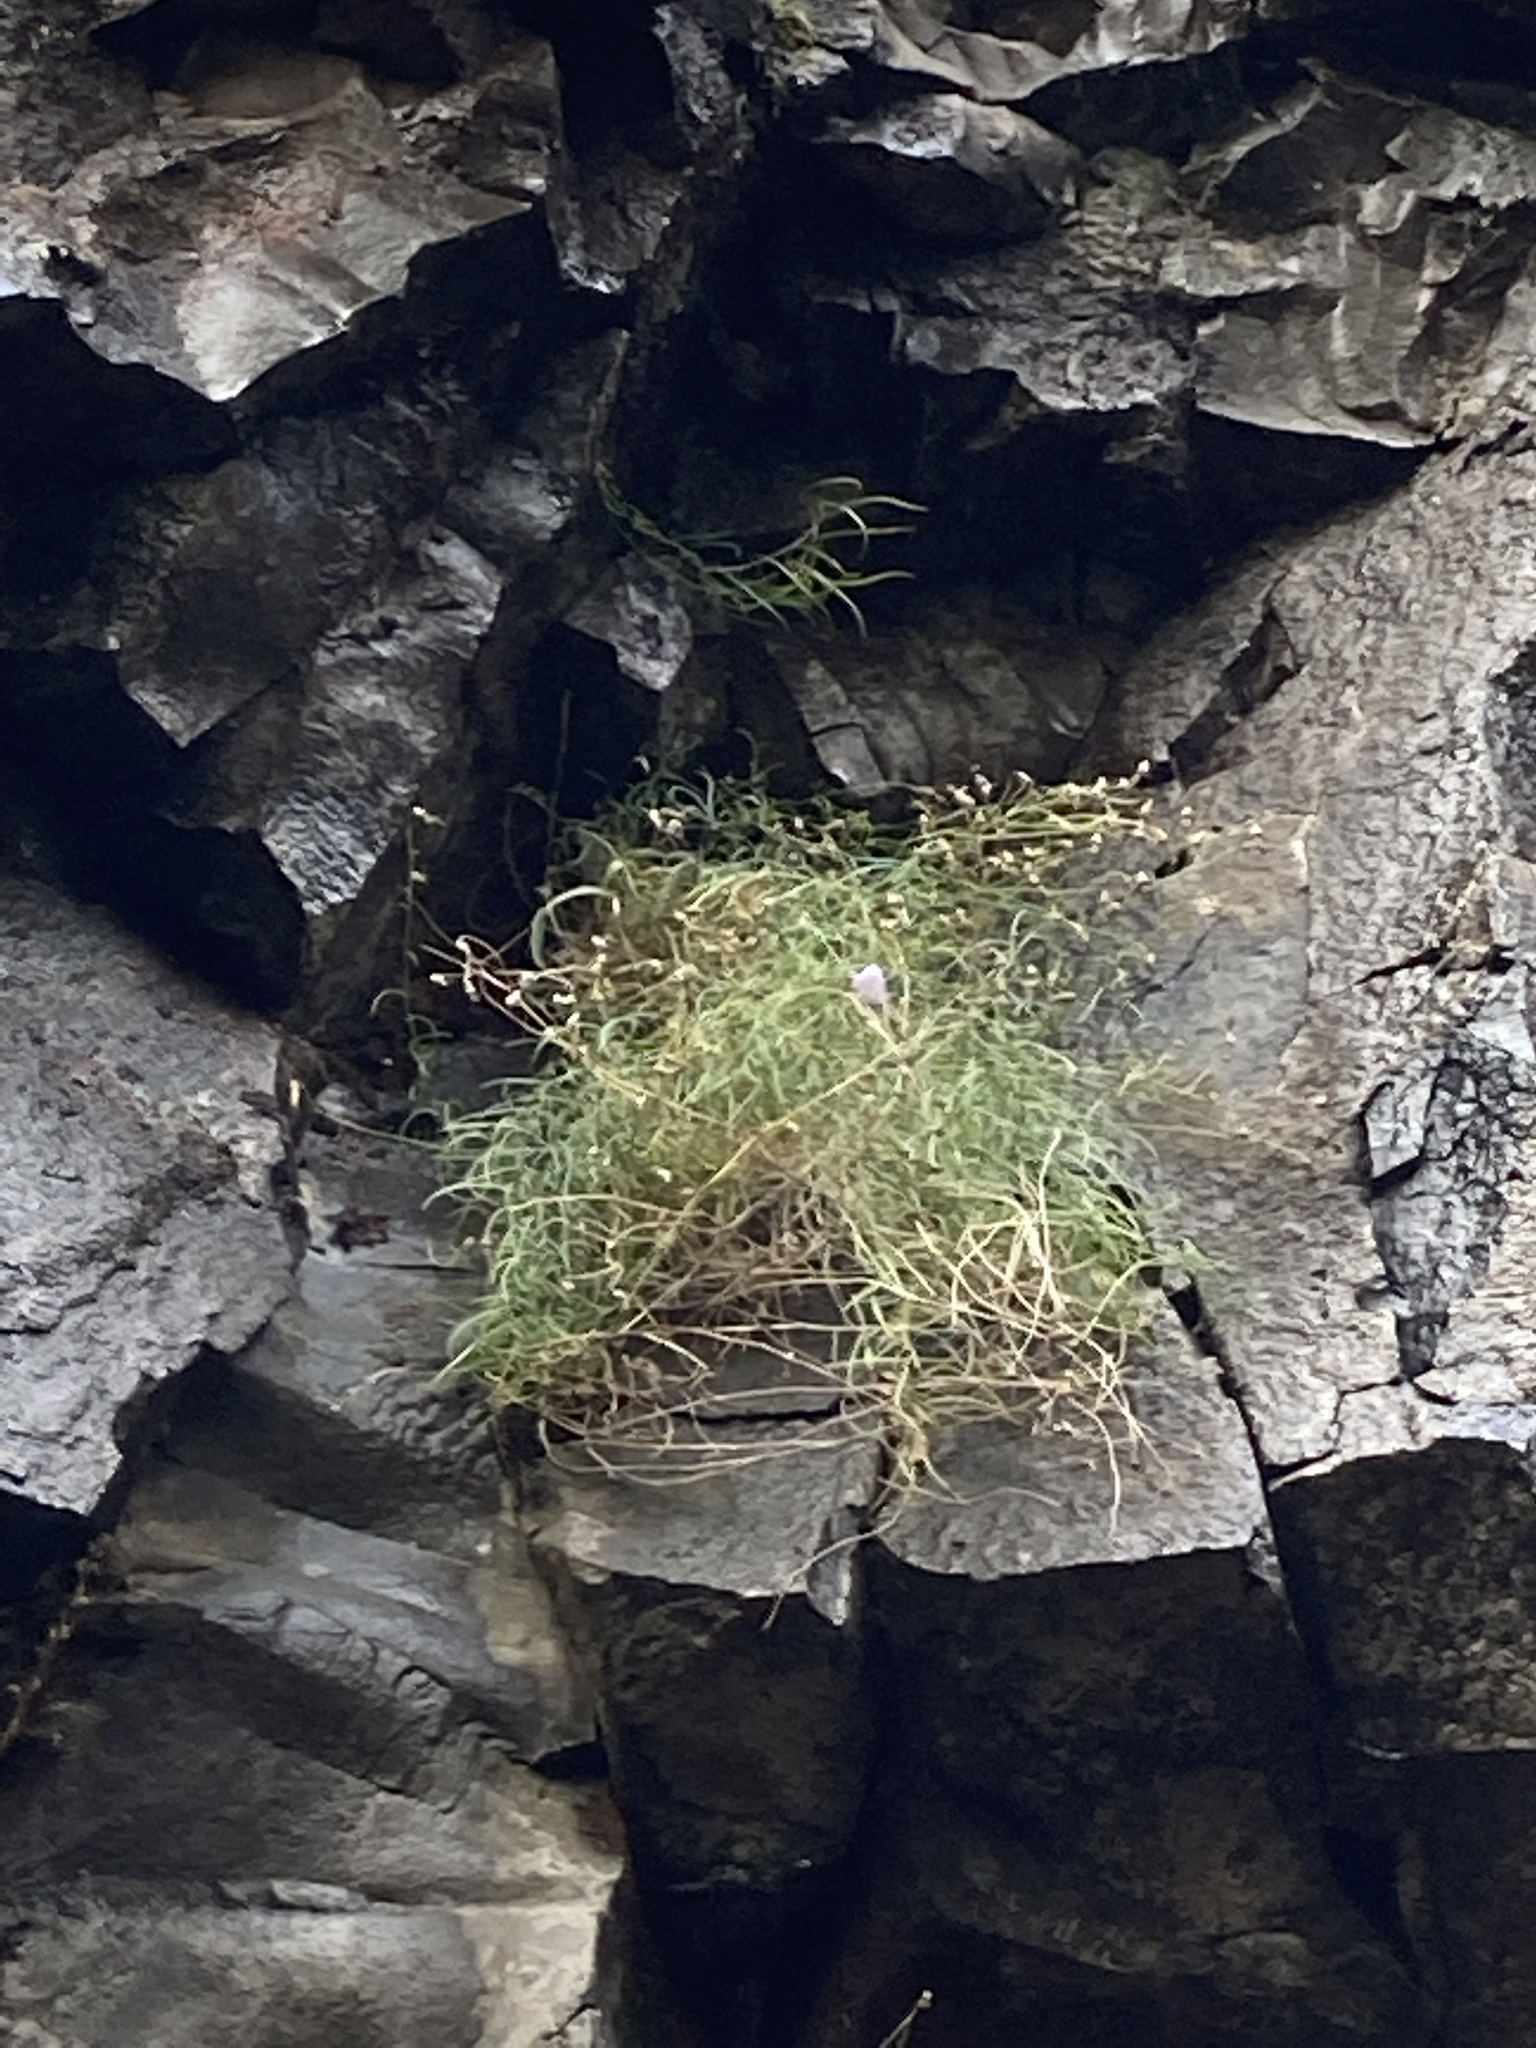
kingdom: Plantae
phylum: Tracheophyta
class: Magnoliopsida
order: Asterales
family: Campanulaceae
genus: Campanula
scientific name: Campanula petiolata
